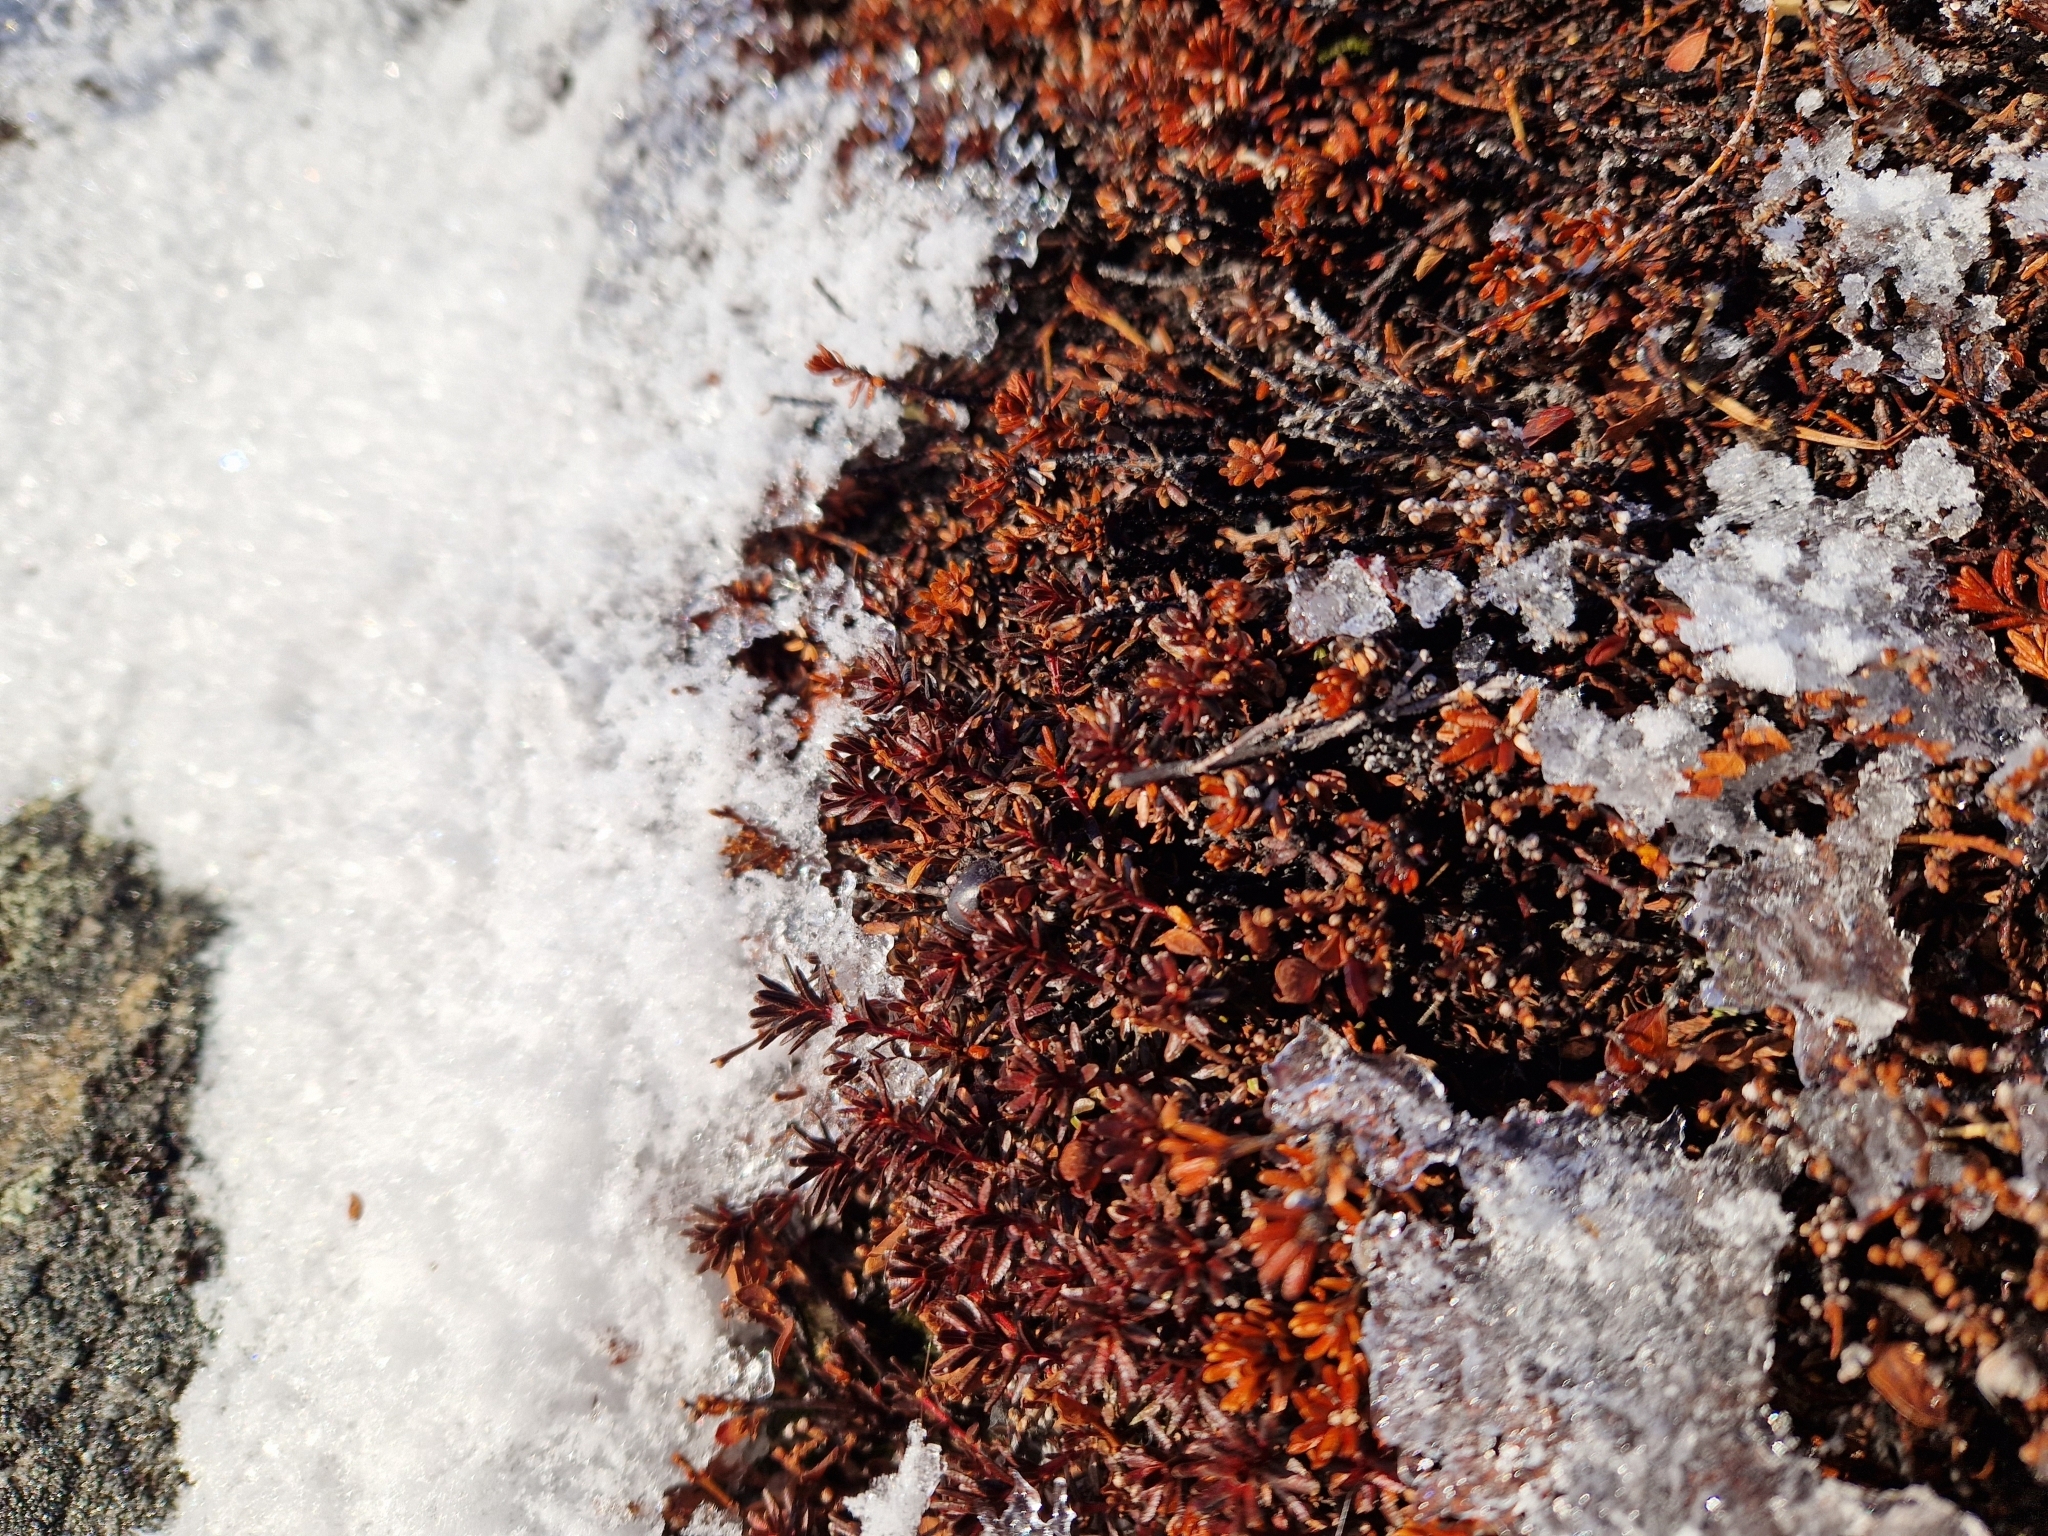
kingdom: Plantae
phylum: Tracheophyta
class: Magnoliopsida
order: Ericales
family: Ericaceae
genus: Empetrum
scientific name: Empetrum hermaphroditum
